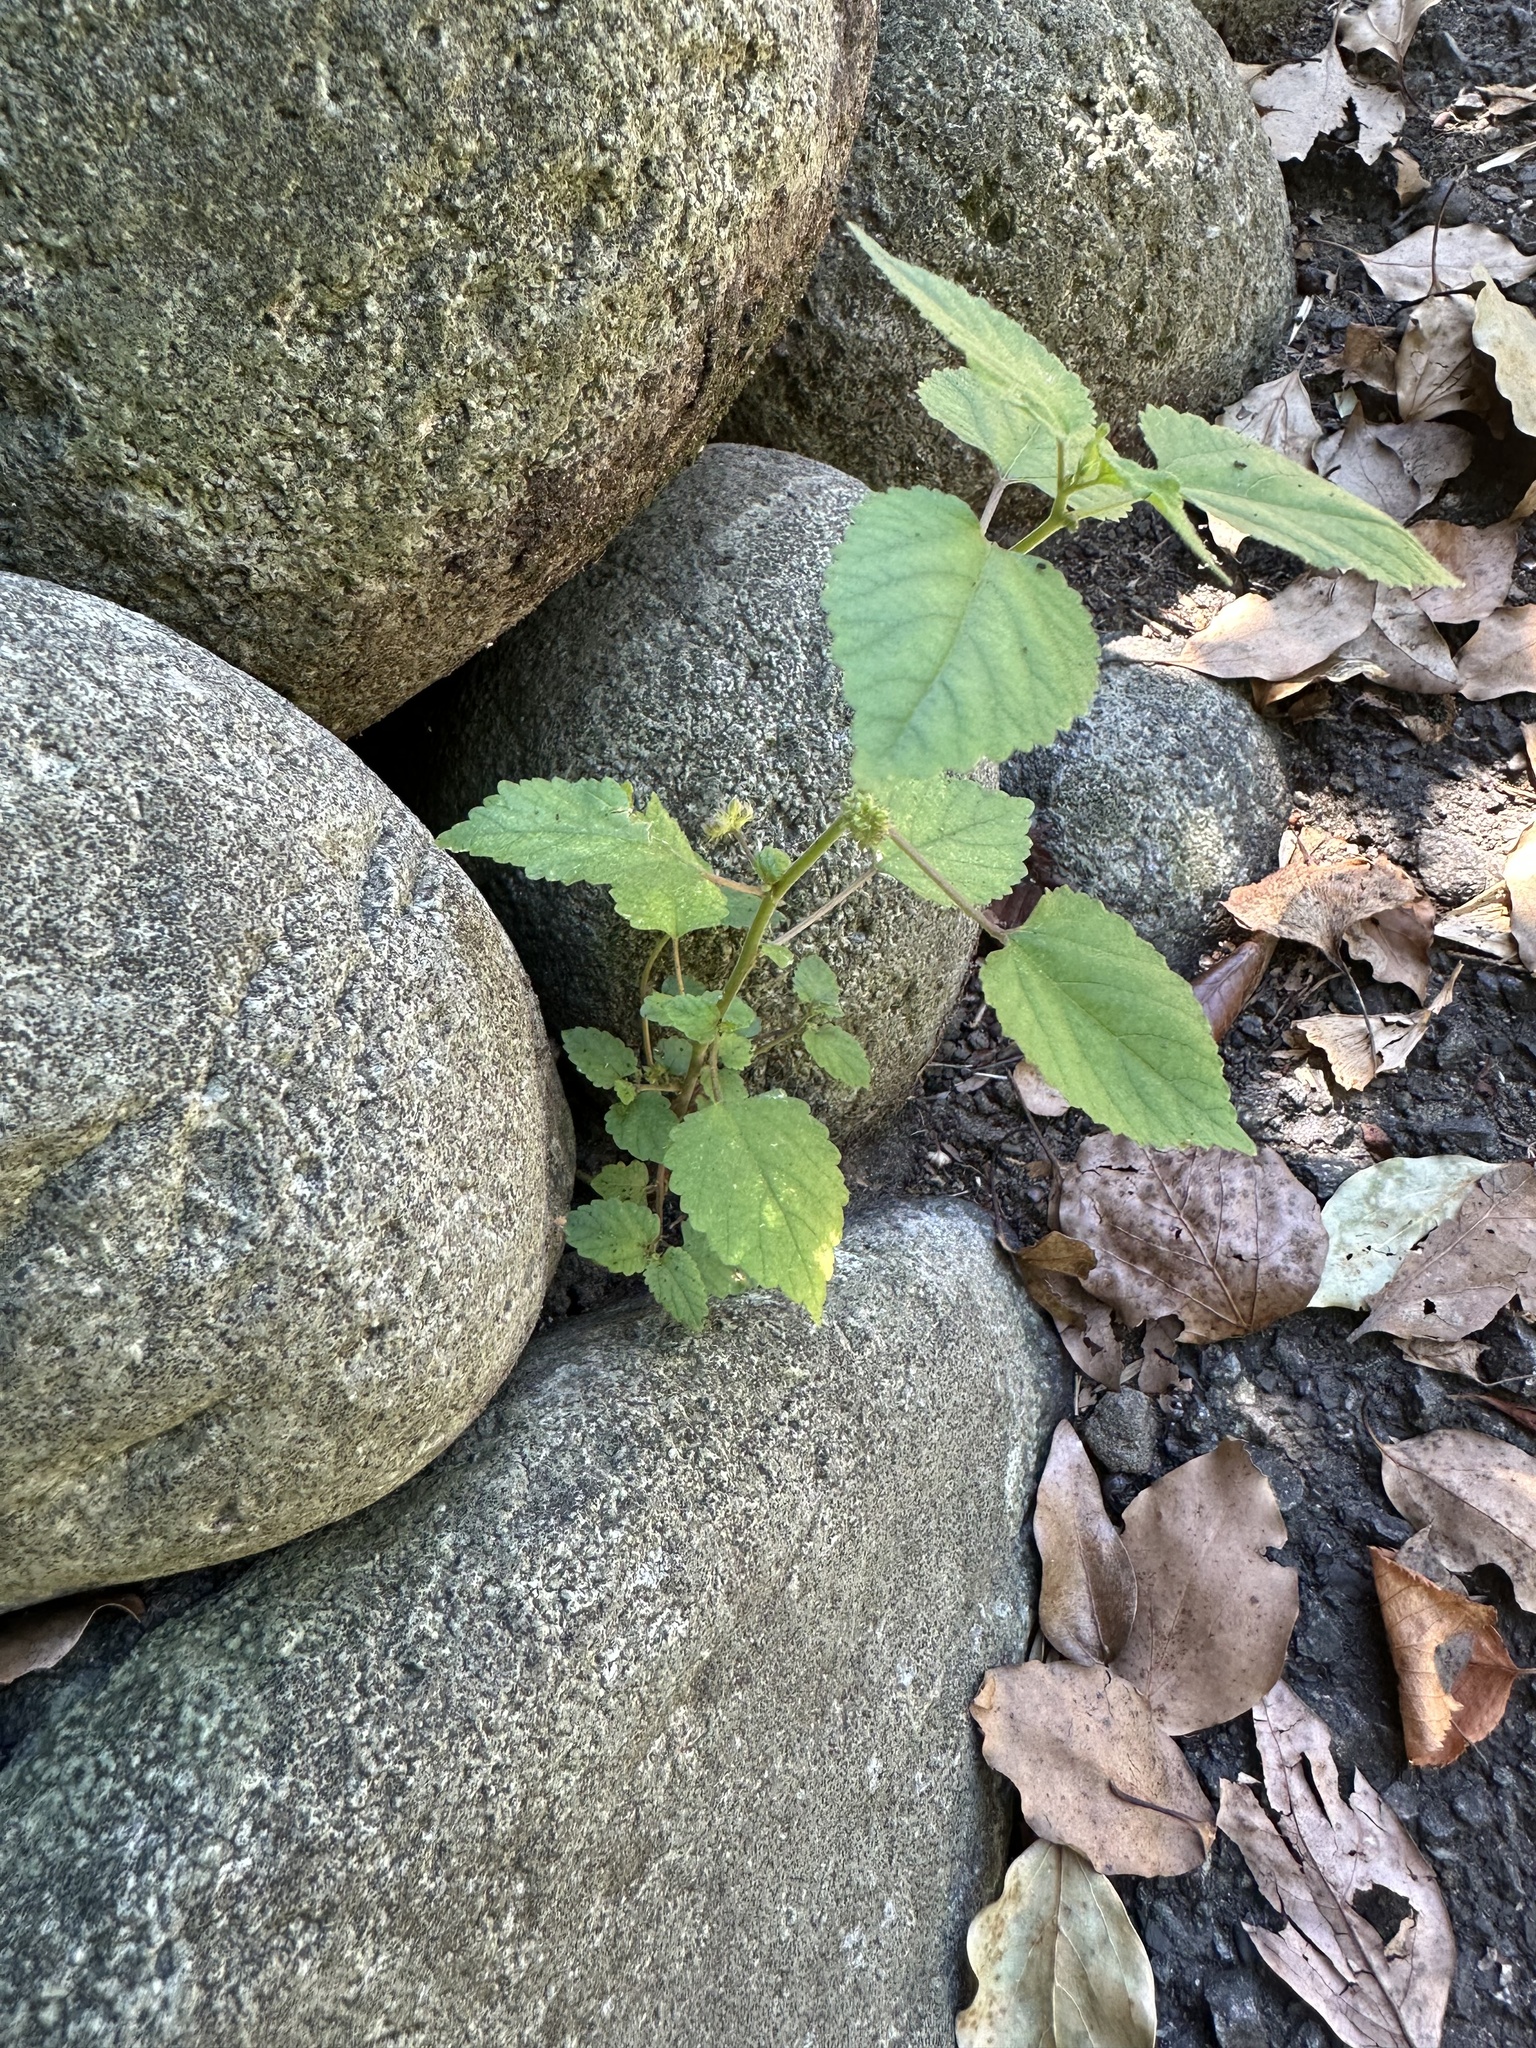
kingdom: Plantae
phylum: Tracheophyta
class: Magnoliopsida
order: Rosales
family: Moraceae
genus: Fatoua
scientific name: Fatoua villosa
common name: Hairy crabweed
